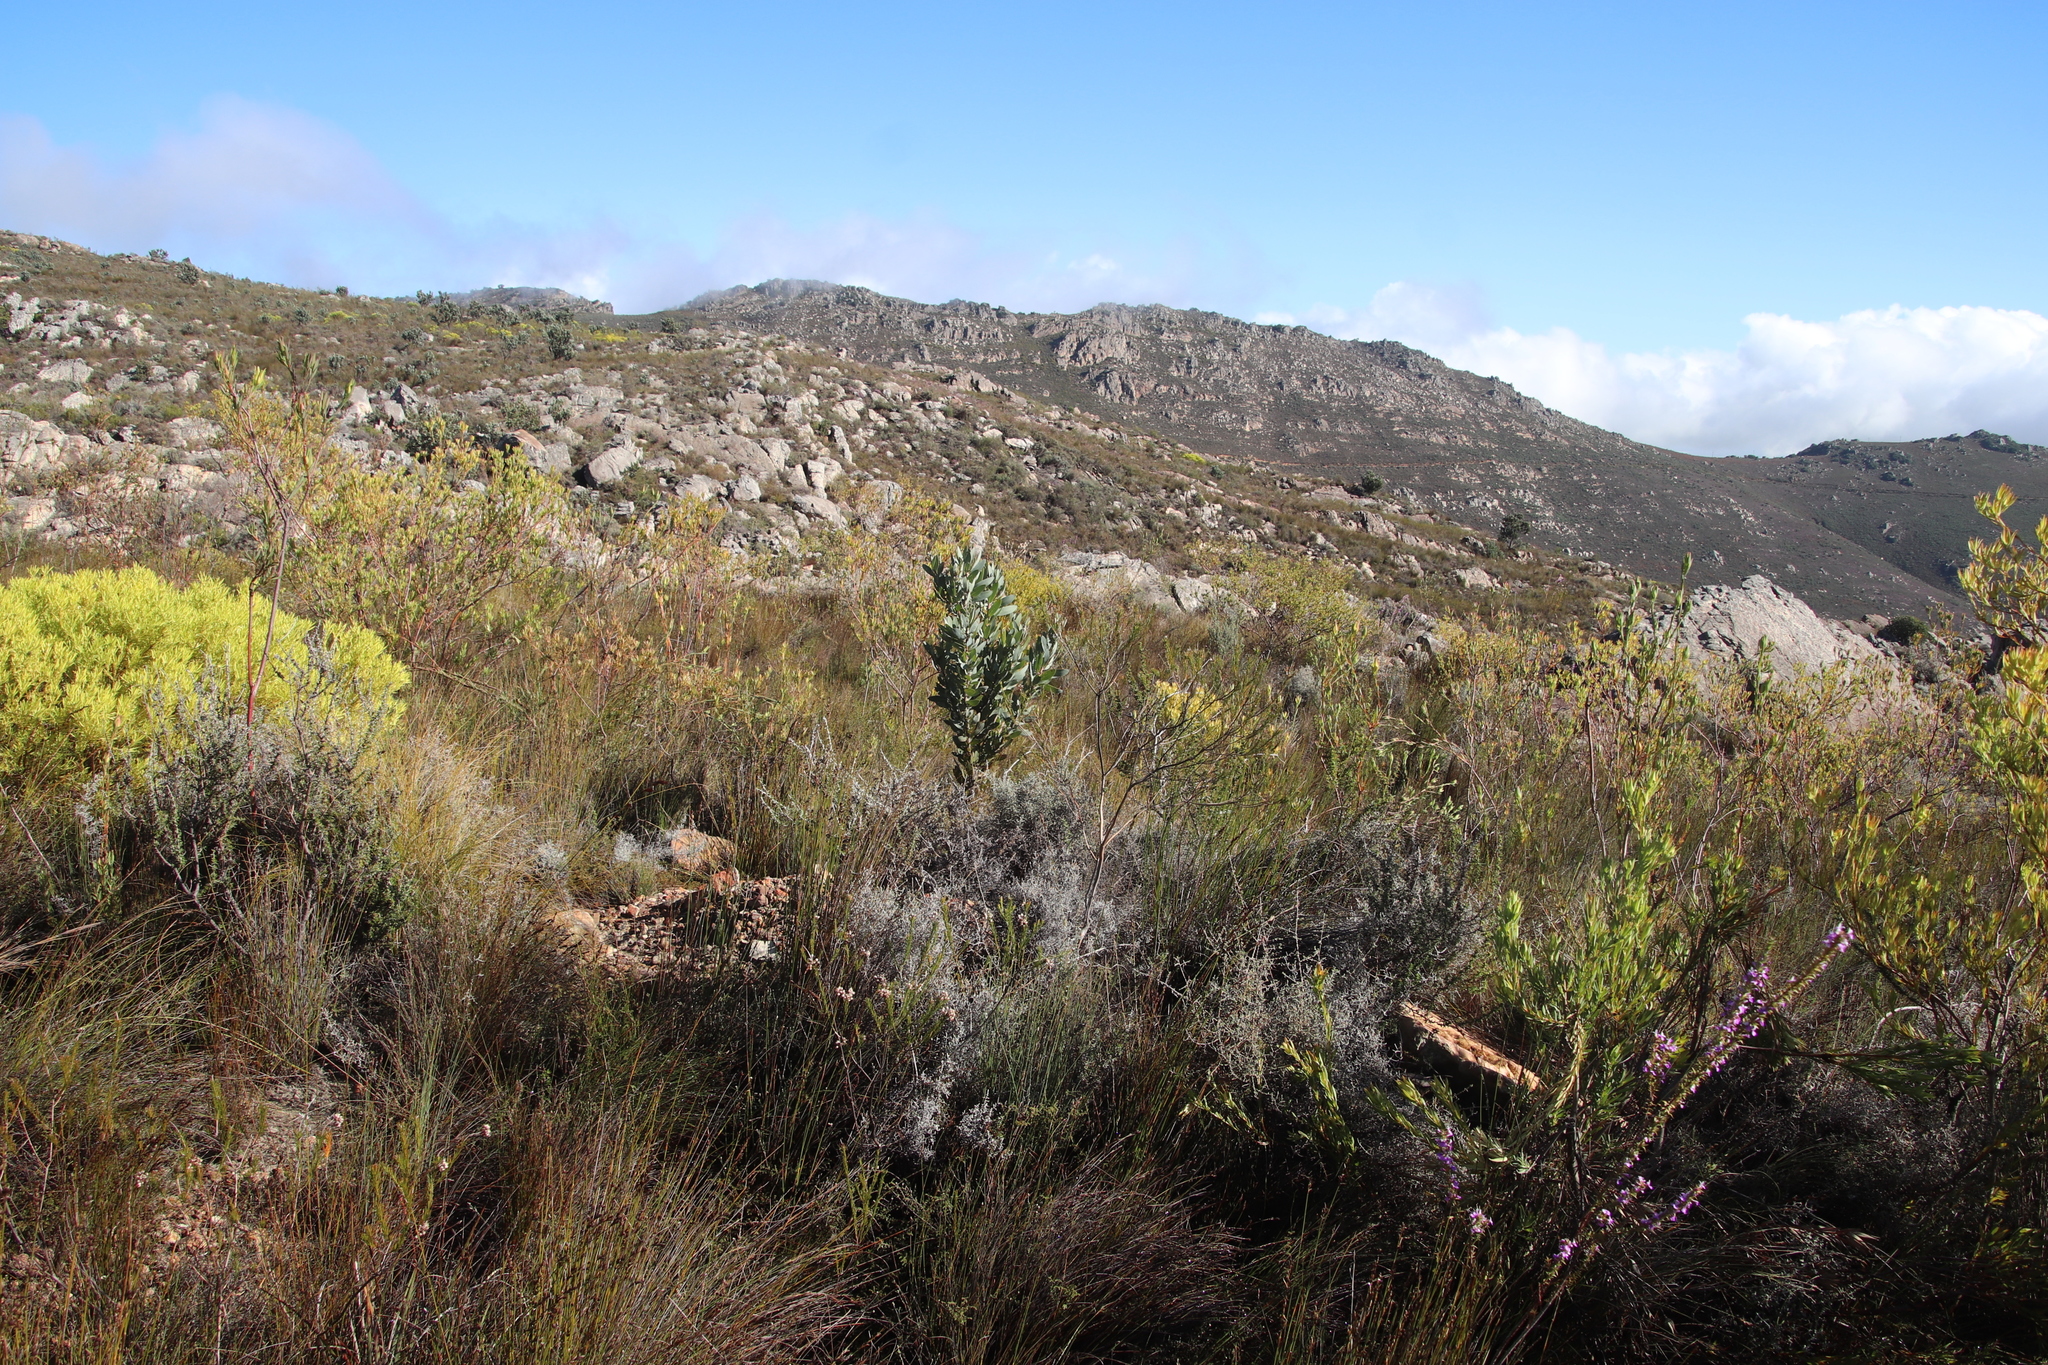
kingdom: Plantae
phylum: Tracheophyta
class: Magnoliopsida
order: Proteales
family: Proteaceae
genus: Protea
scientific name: Protea laurifolia
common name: Grey-leaf sugarbsh
